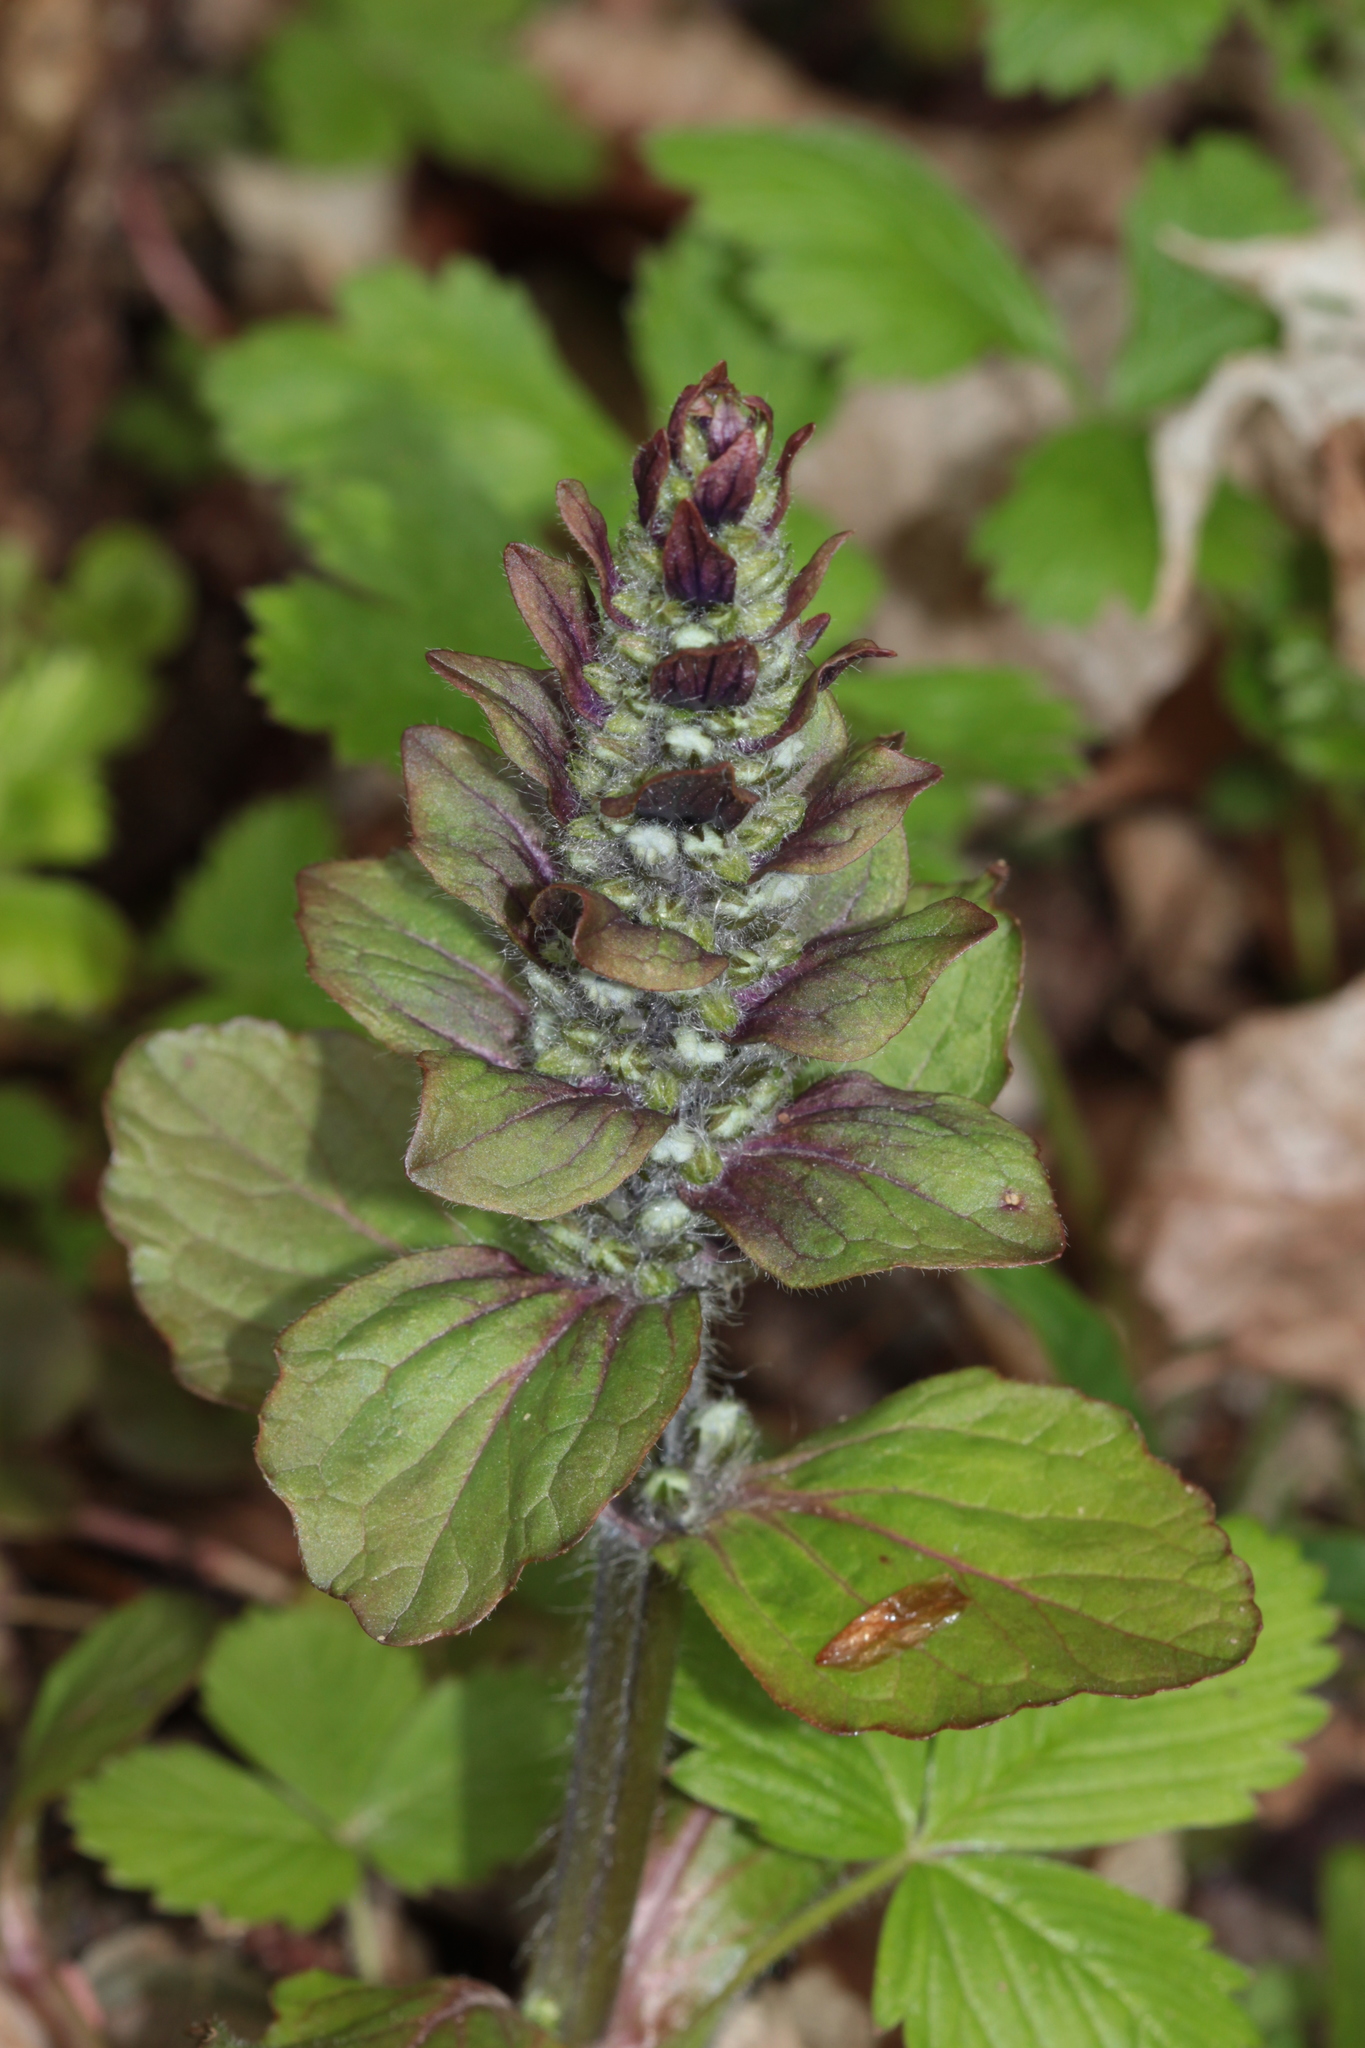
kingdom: Plantae
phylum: Tracheophyta
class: Magnoliopsida
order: Lamiales
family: Lamiaceae
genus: Ajuga
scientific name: Ajuga reptans
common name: Bugle
